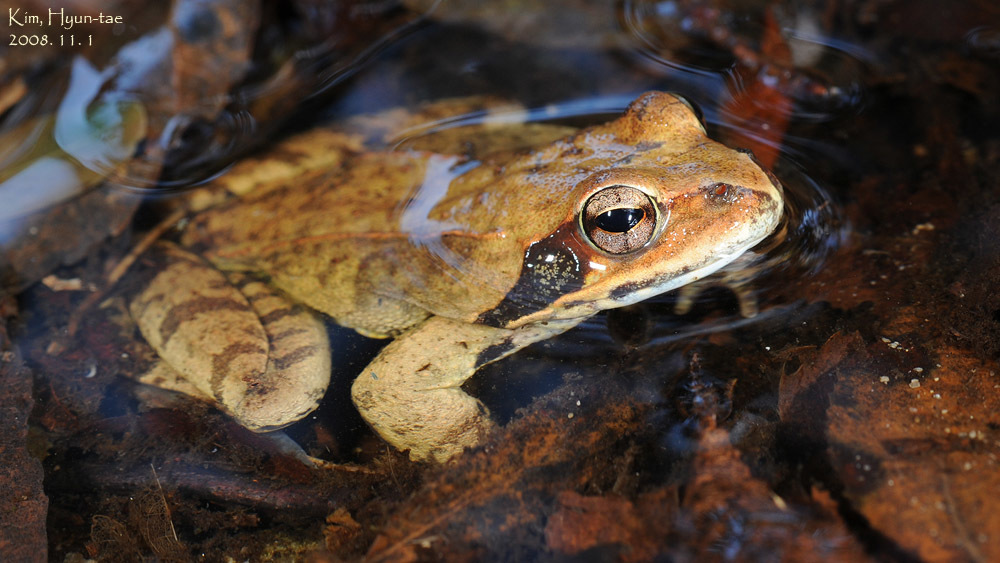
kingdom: Animalia
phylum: Chordata
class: Amphibia
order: Anura
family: Ranidae
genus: Rana
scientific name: Rana uenoi
